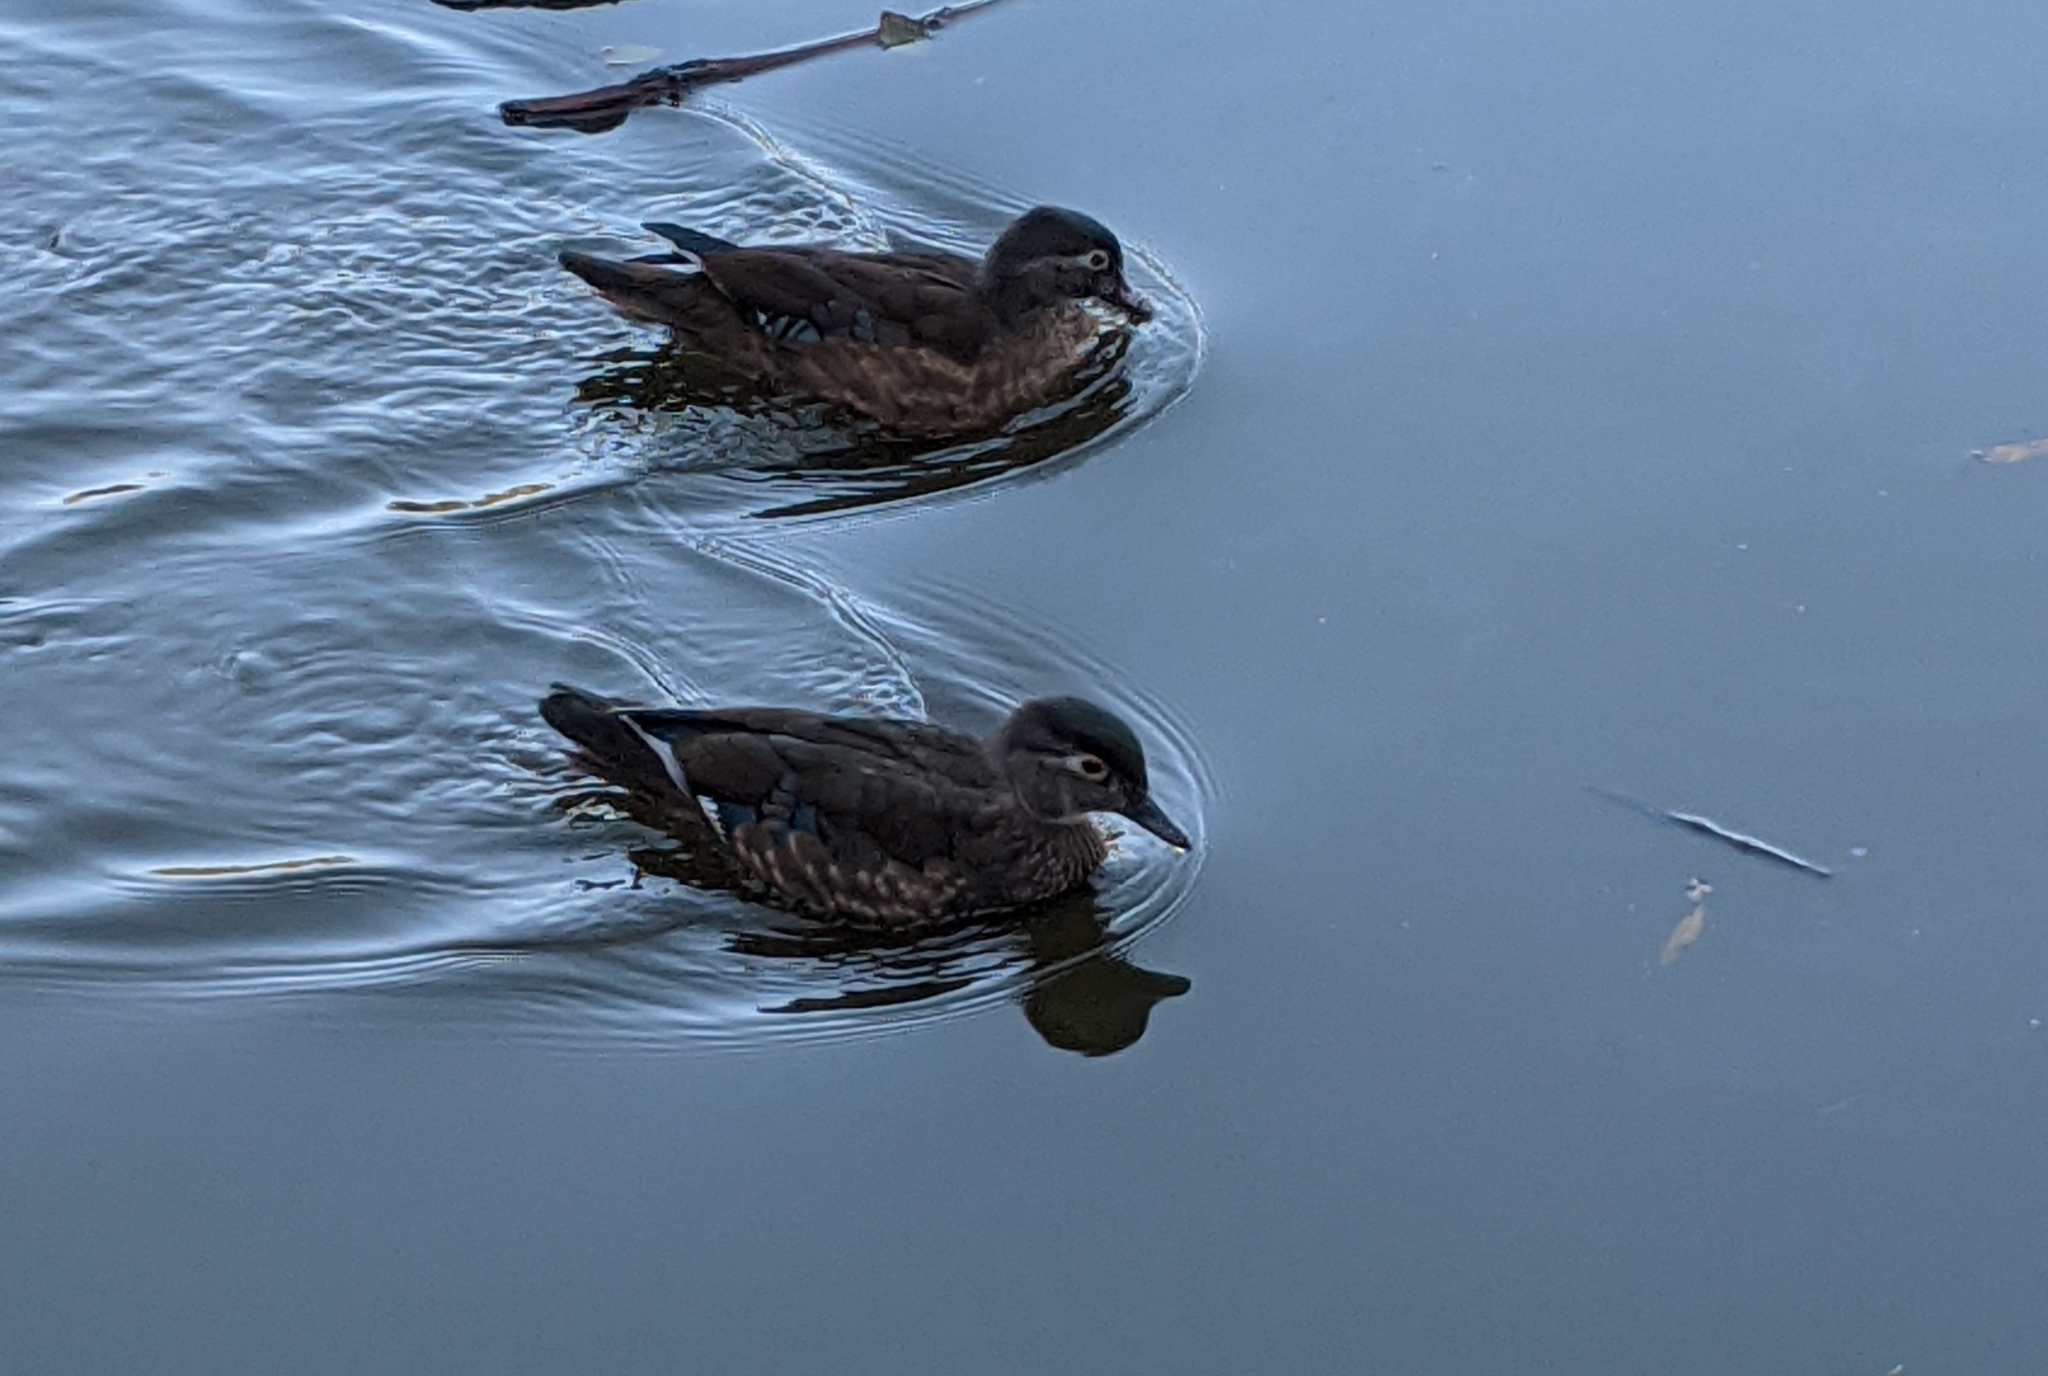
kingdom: Animalia
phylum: Chordata
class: Aves
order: Anseriformes
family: Anatidae
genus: Aix
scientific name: Aix sponsa
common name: Wood duck
